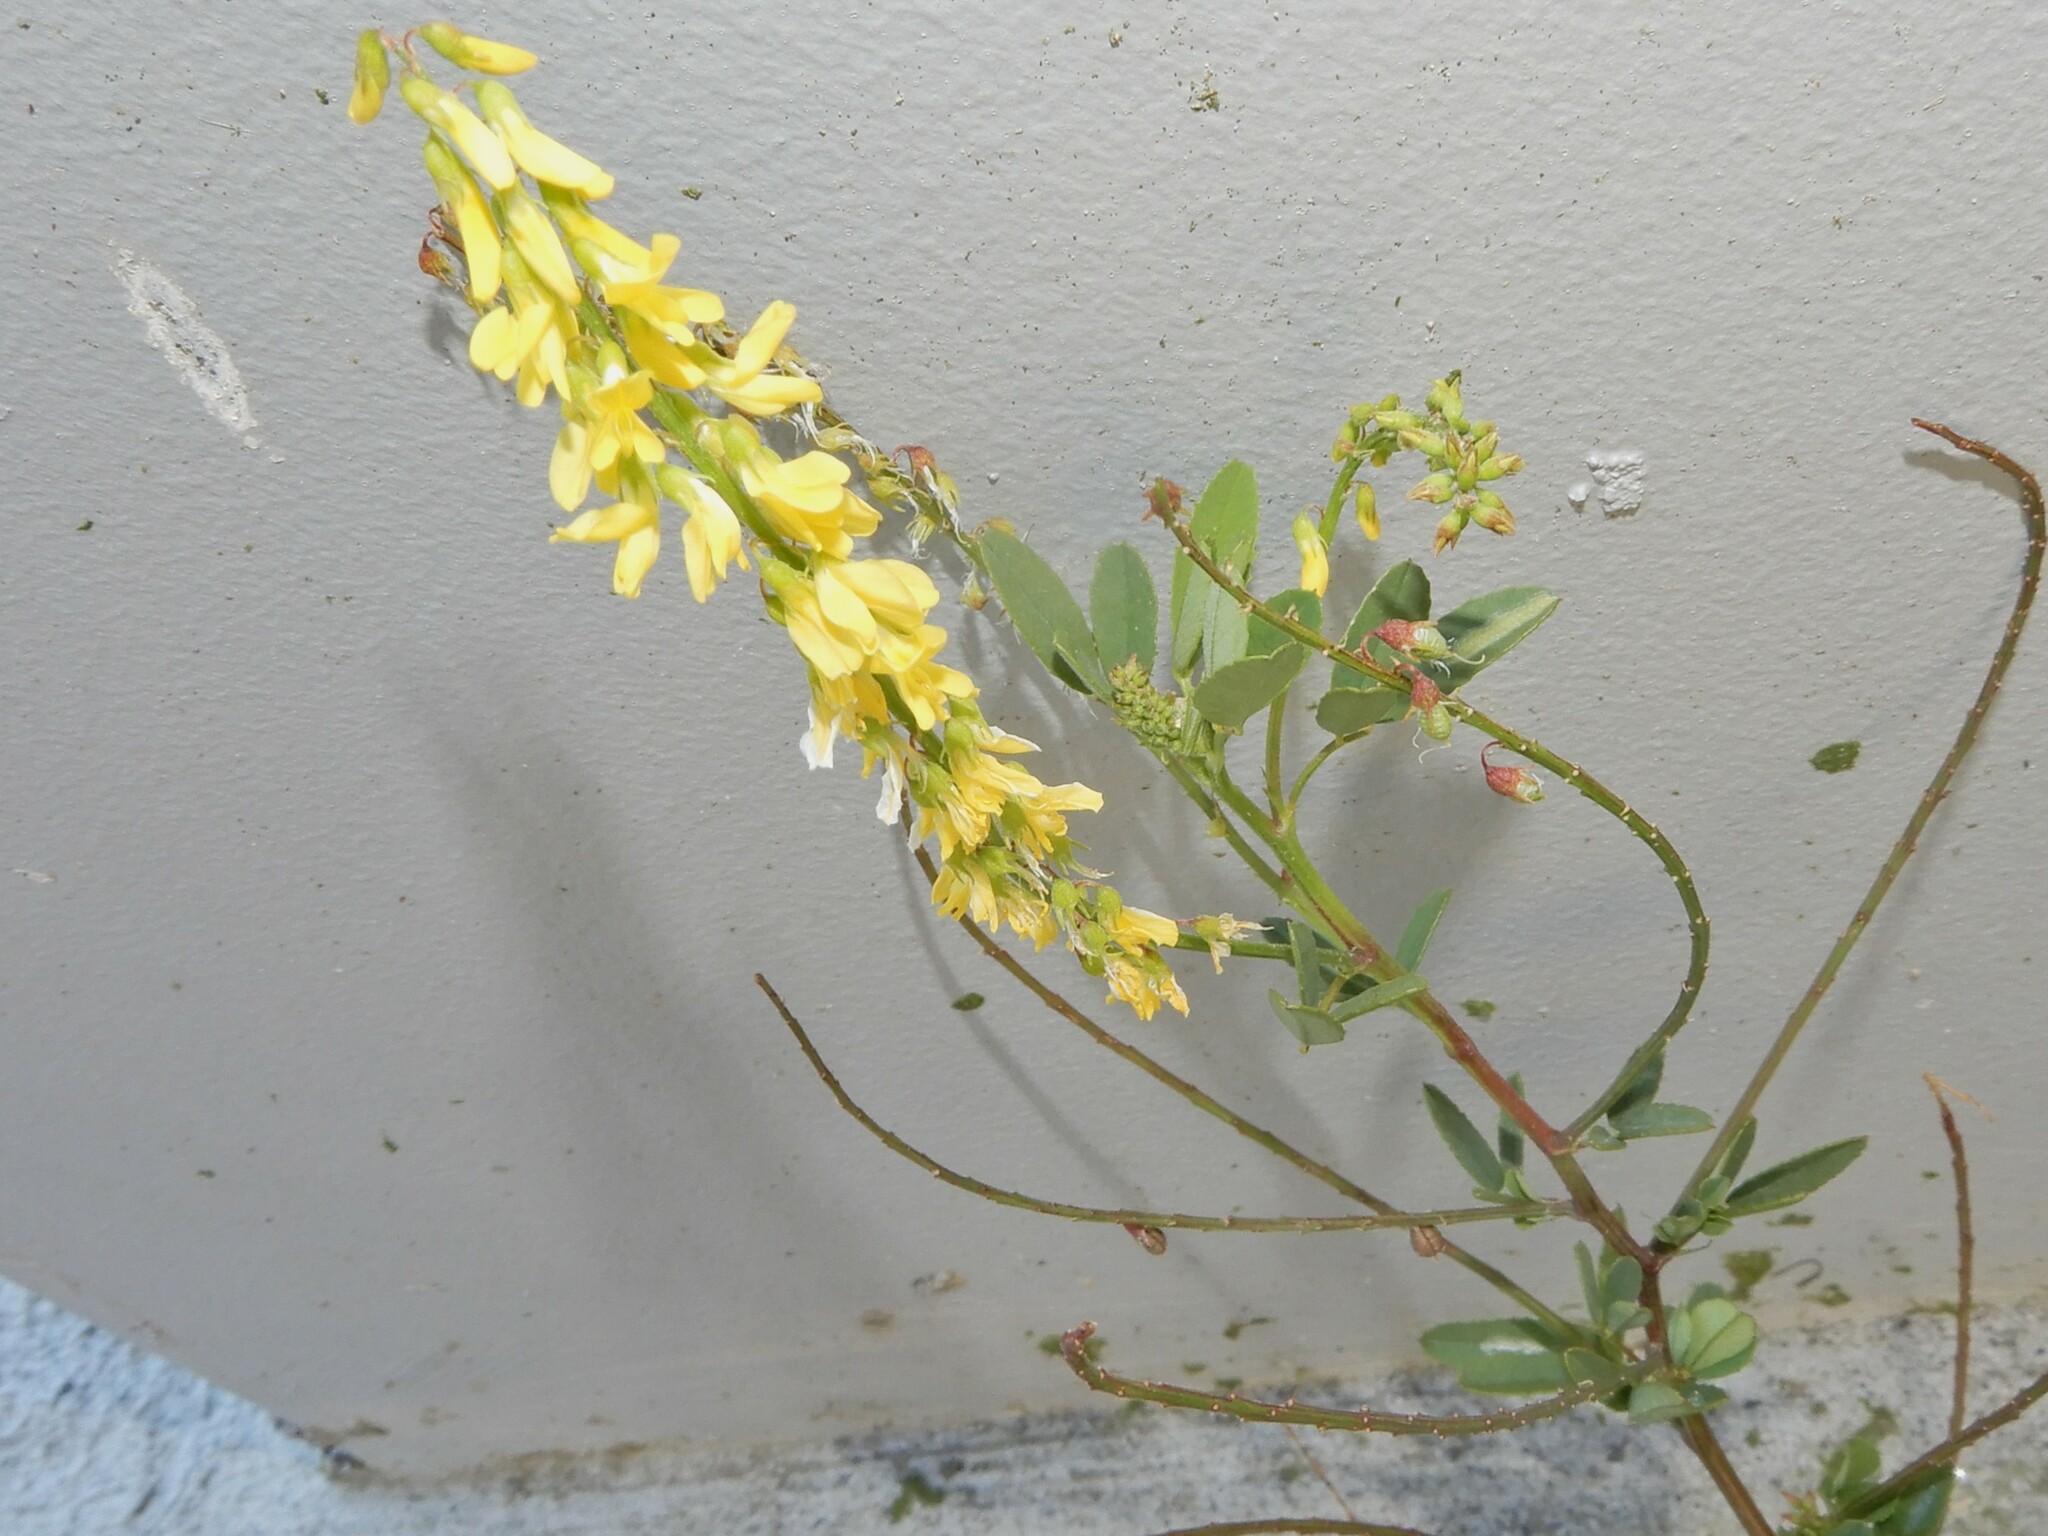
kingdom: Plantae
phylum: Tracheophyta
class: Magnoliopsida
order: Fabales
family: Fabaceae
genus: Melilotus
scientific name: Melilotus officinalis
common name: Sweetclover
